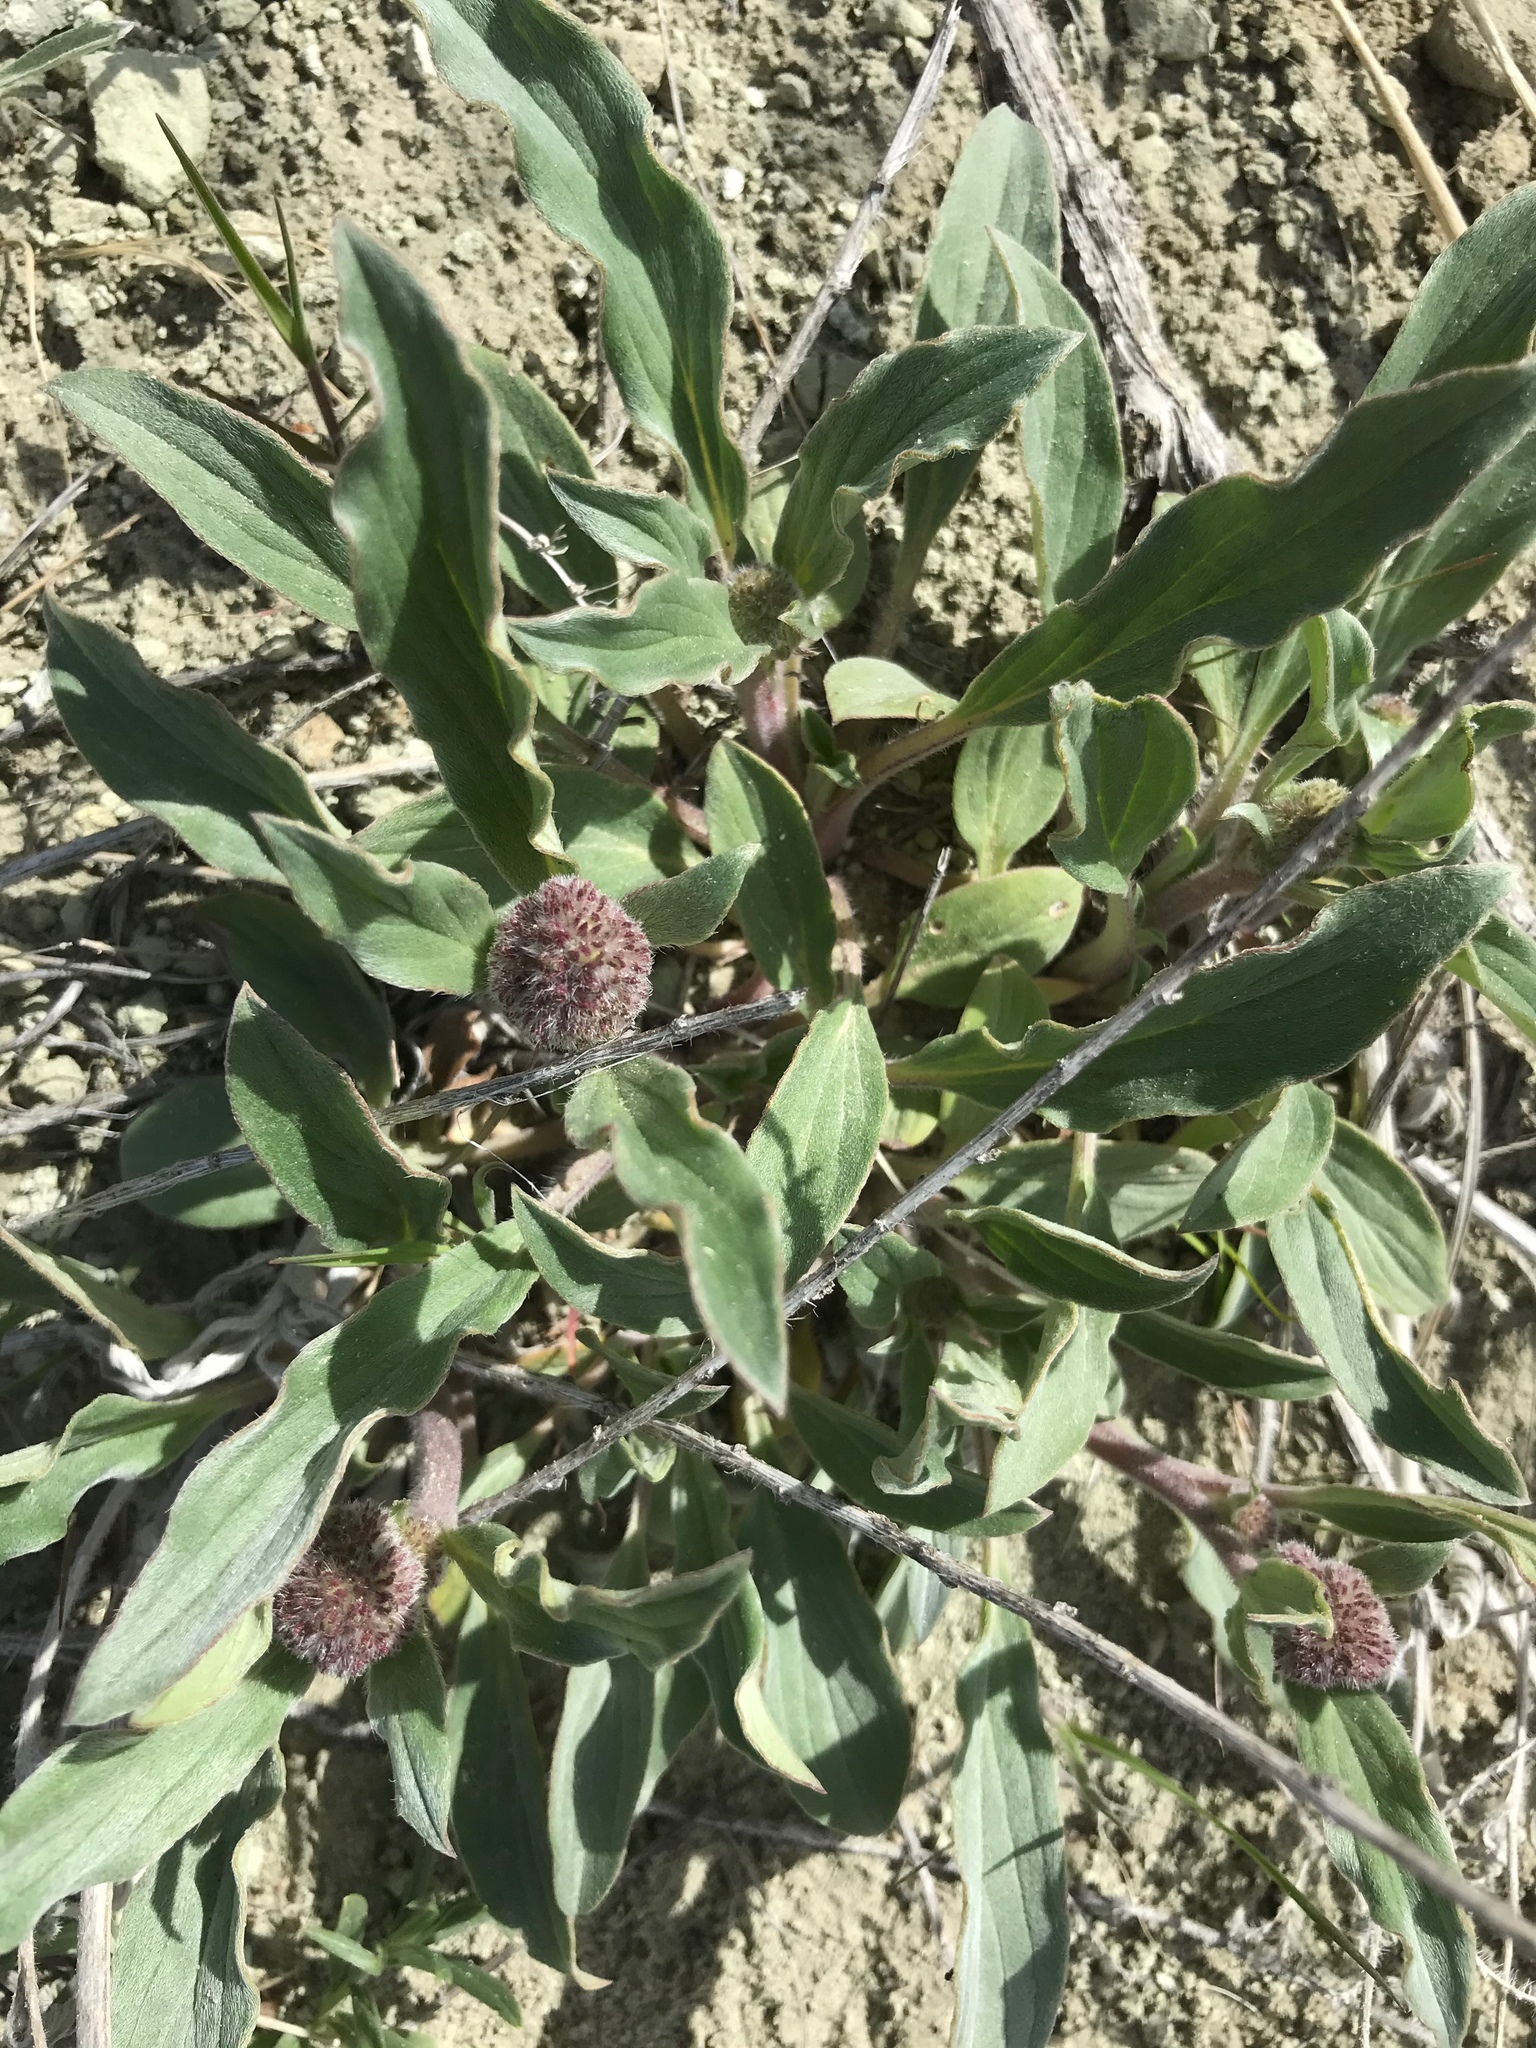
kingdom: Plantae
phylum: Tracheophyta
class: Magnoliopsida
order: Boraginales
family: Hydrophyllaceae
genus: Phacelia
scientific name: Phacelia hastata
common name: Silver-leaved phacelia
